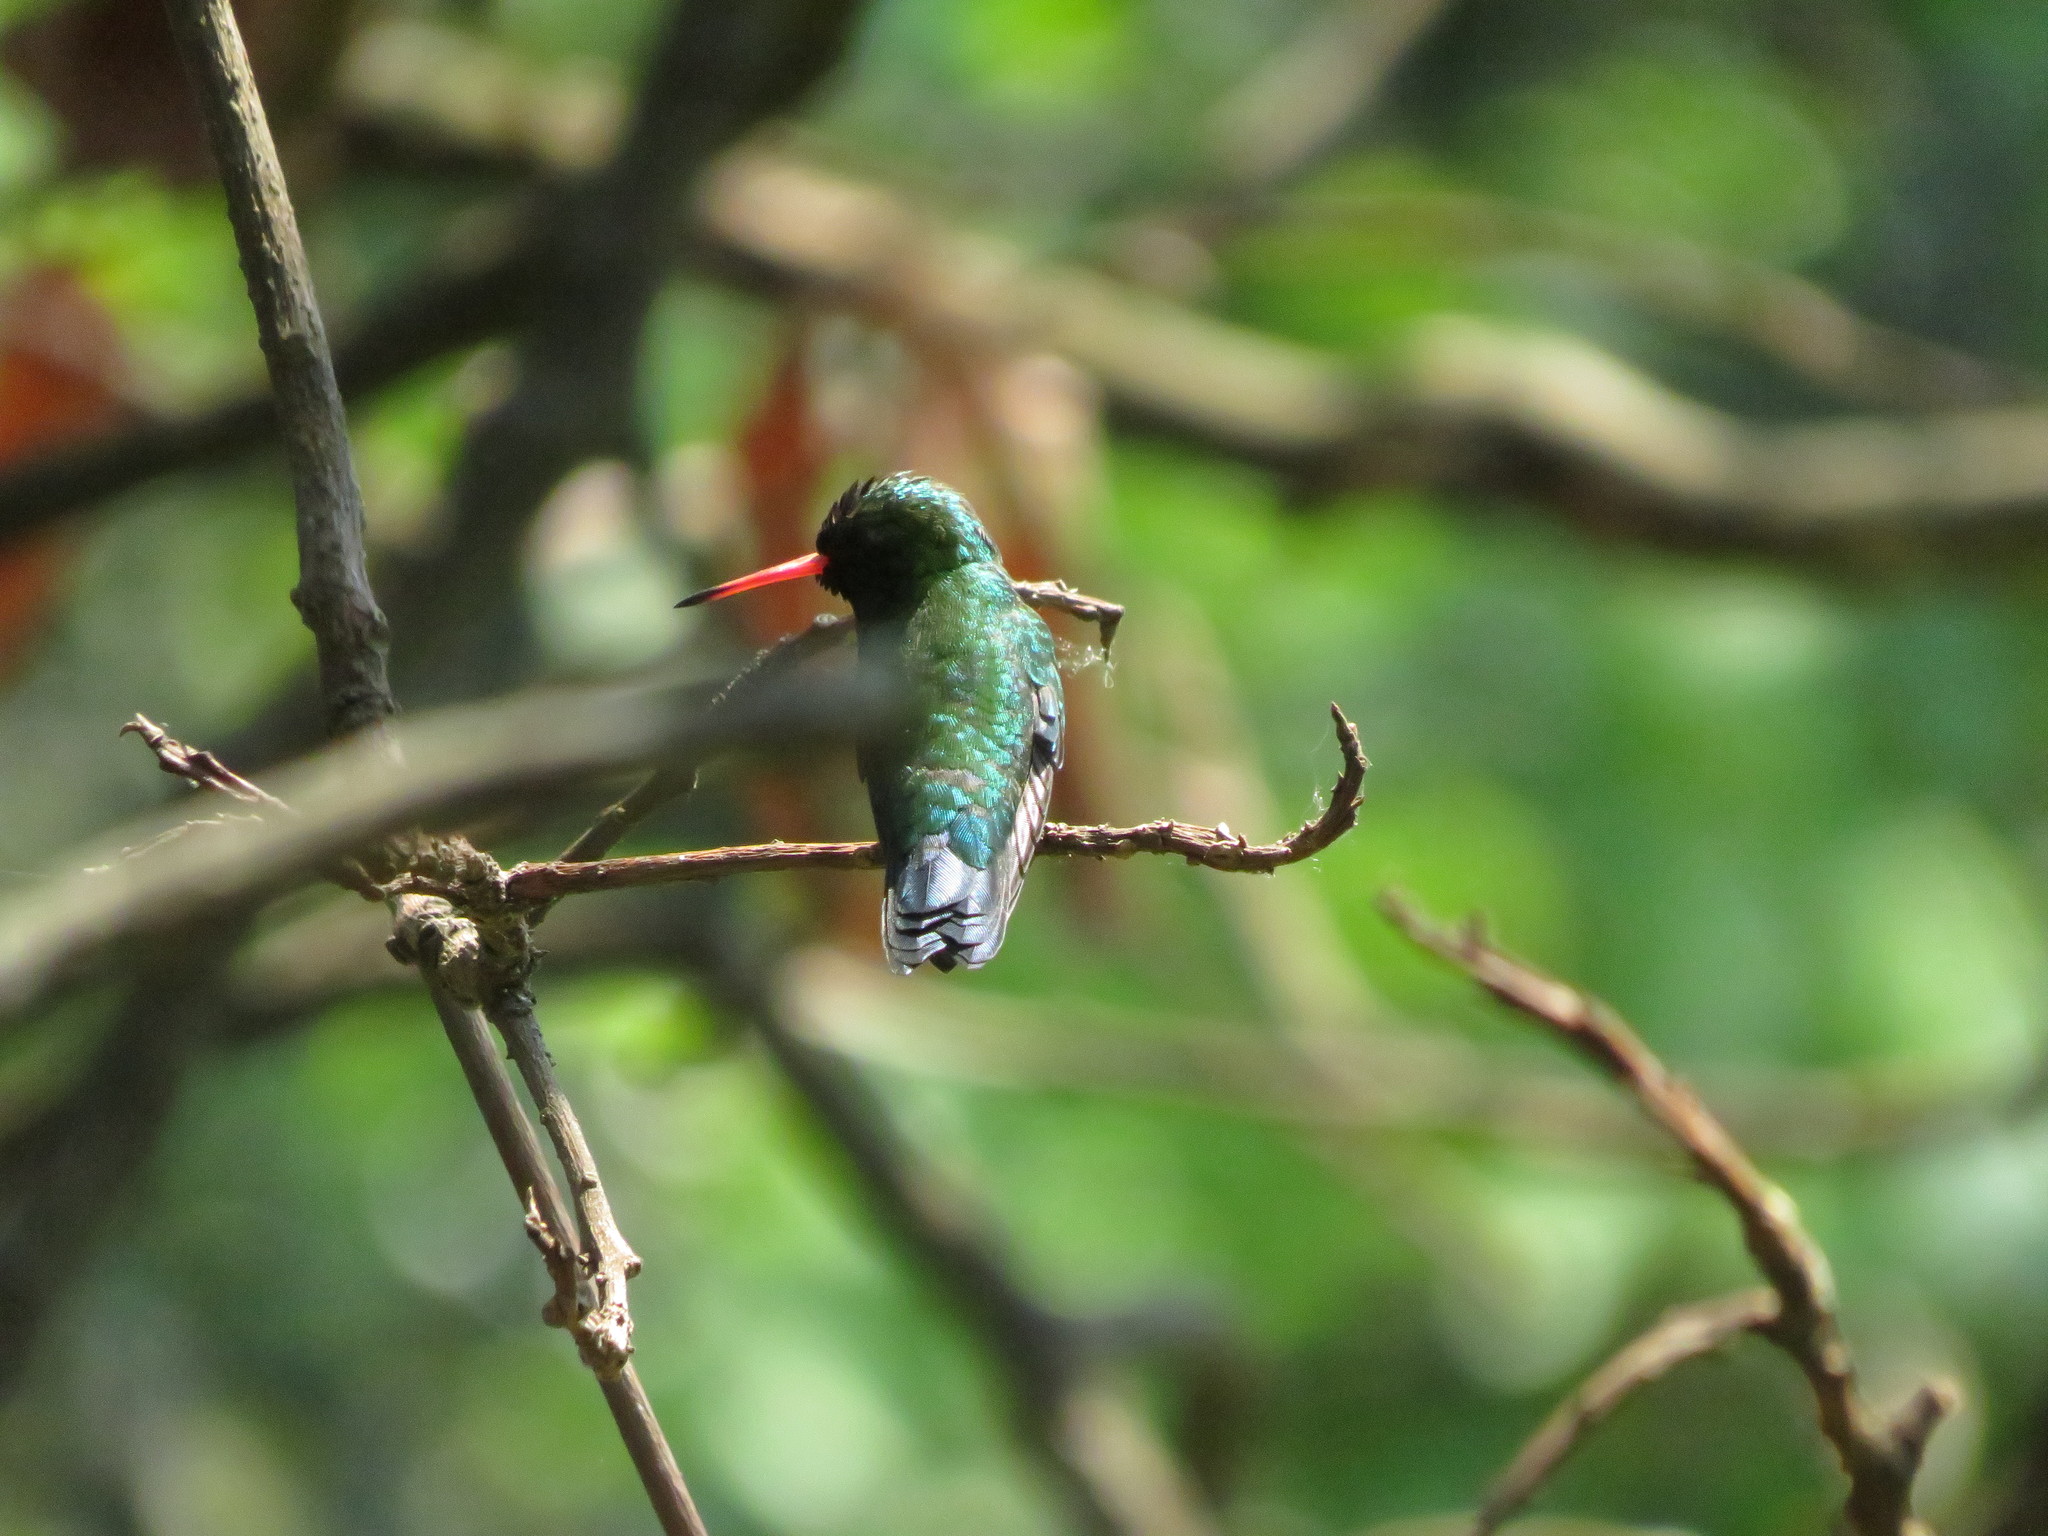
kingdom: Animalia
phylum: Chordata
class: Aves
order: Apodiformes
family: Trochilidae
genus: Chlorostilbon
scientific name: Chlorostilbon lucidus
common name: Glittering-bellied emerald
